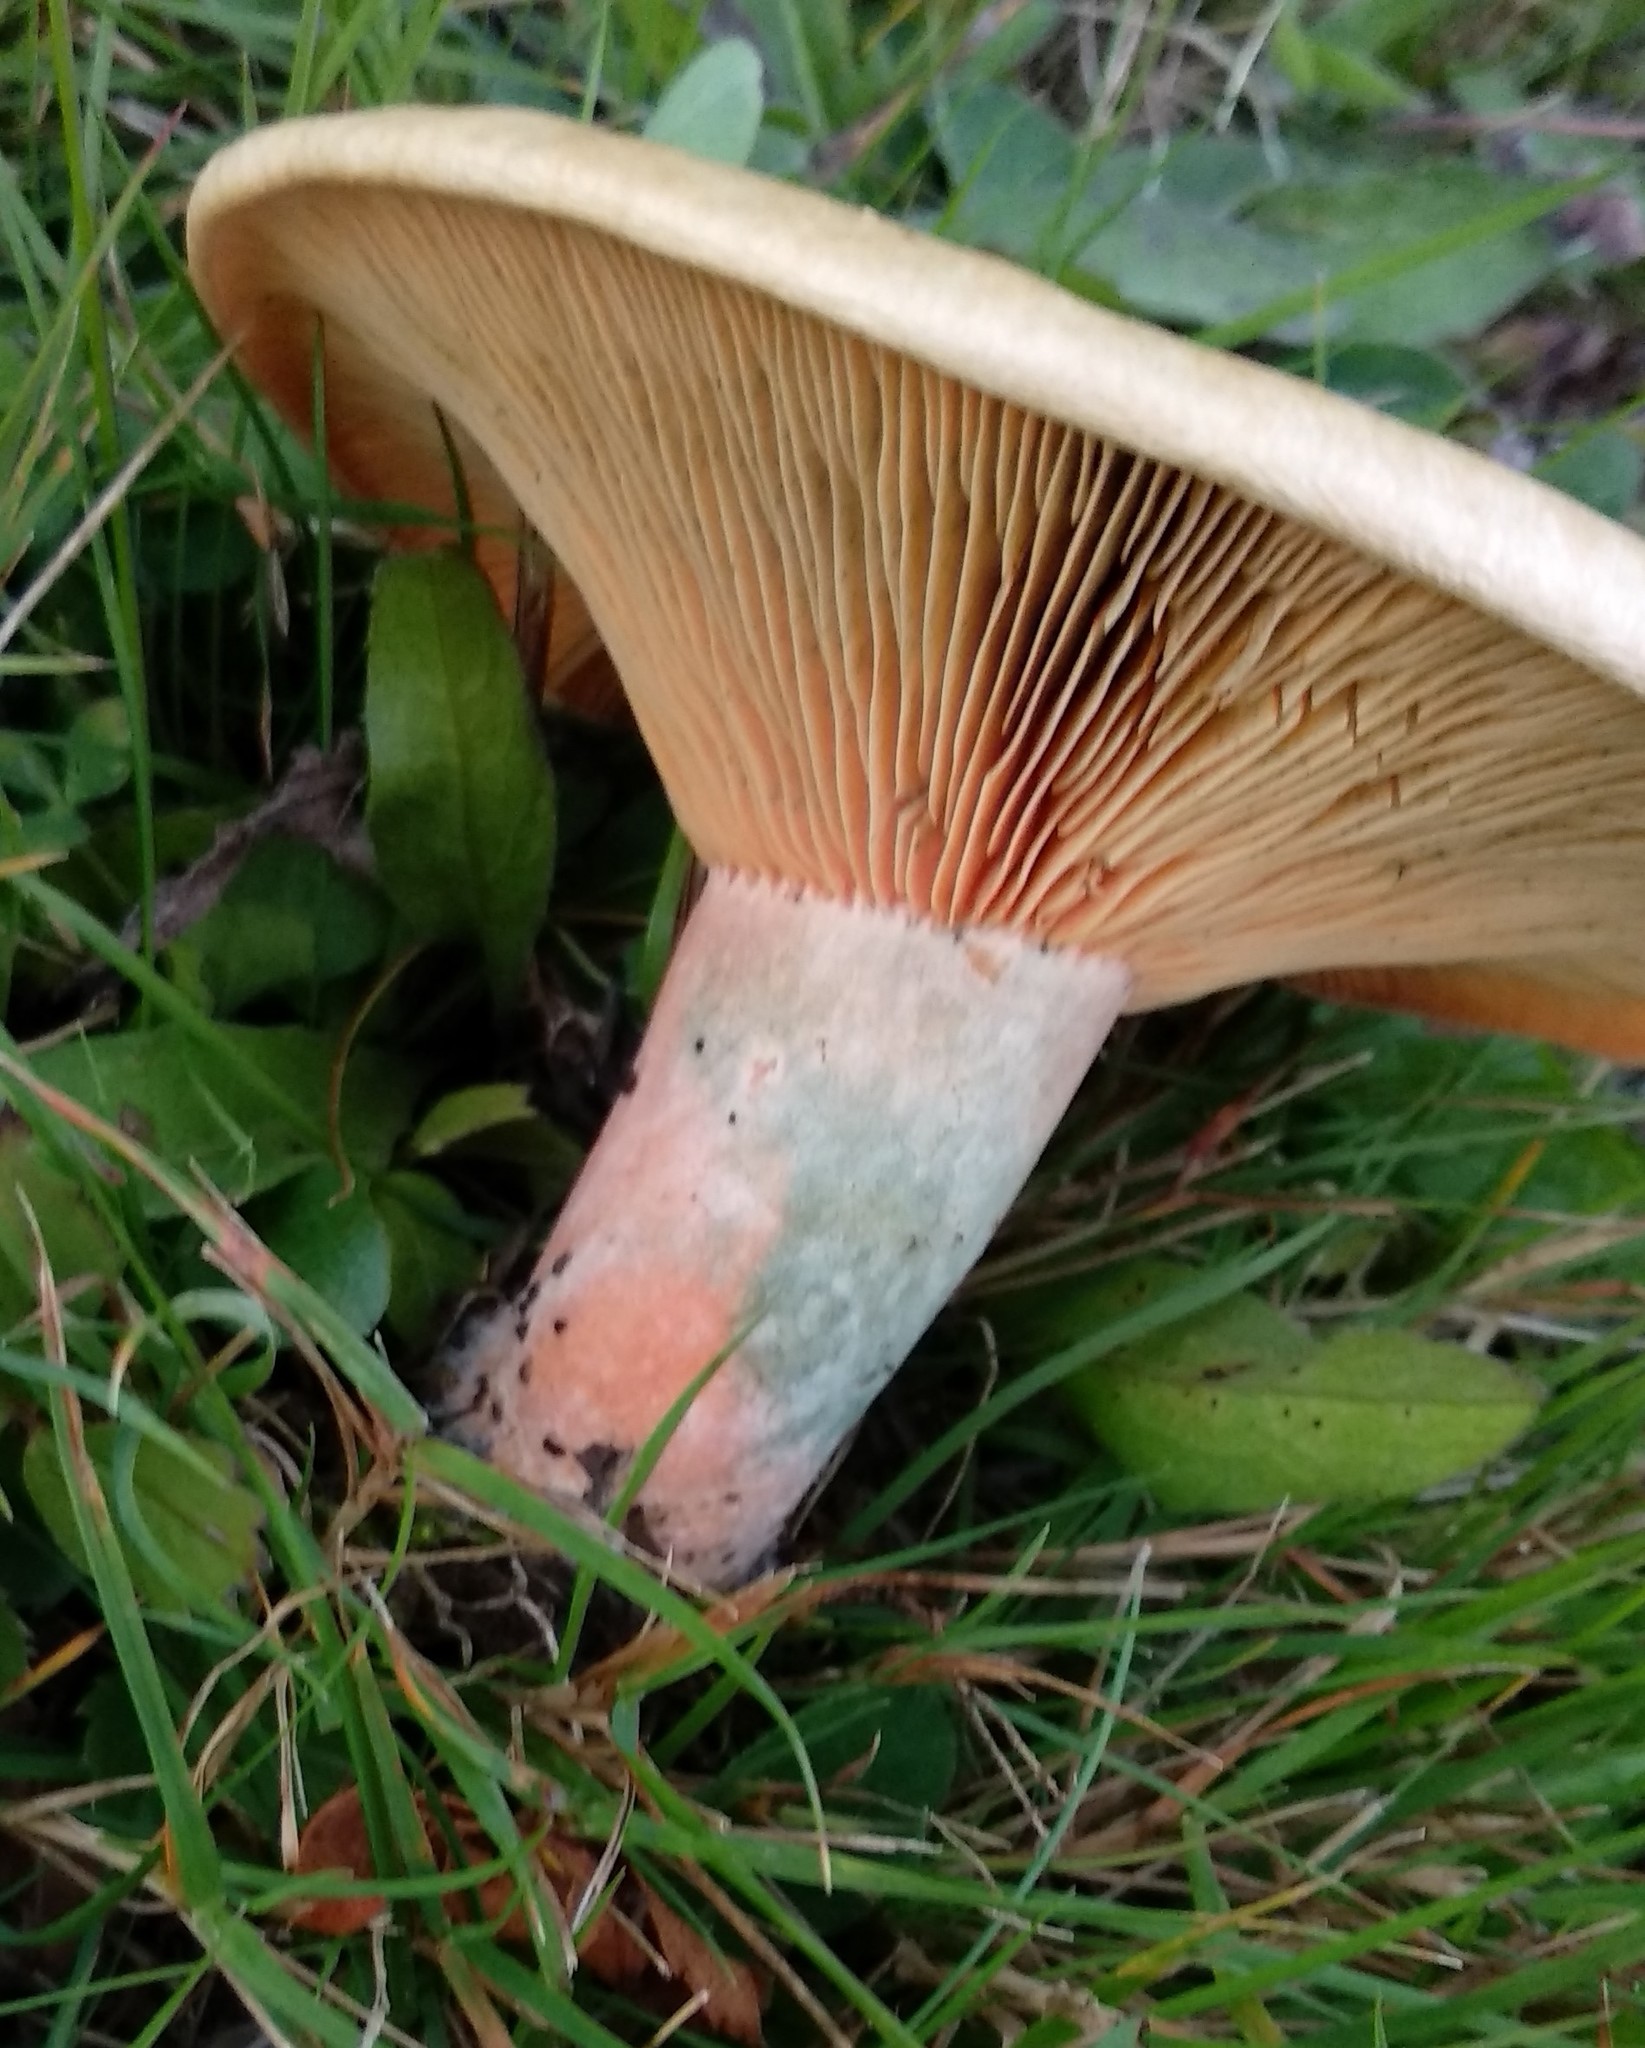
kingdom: Fungi
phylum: Basidiomycota
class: Agaricomycetes
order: Russulales
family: Russulaceae
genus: Lactarius
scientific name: Lactarius deliciosus
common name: Saffron milk-cap
